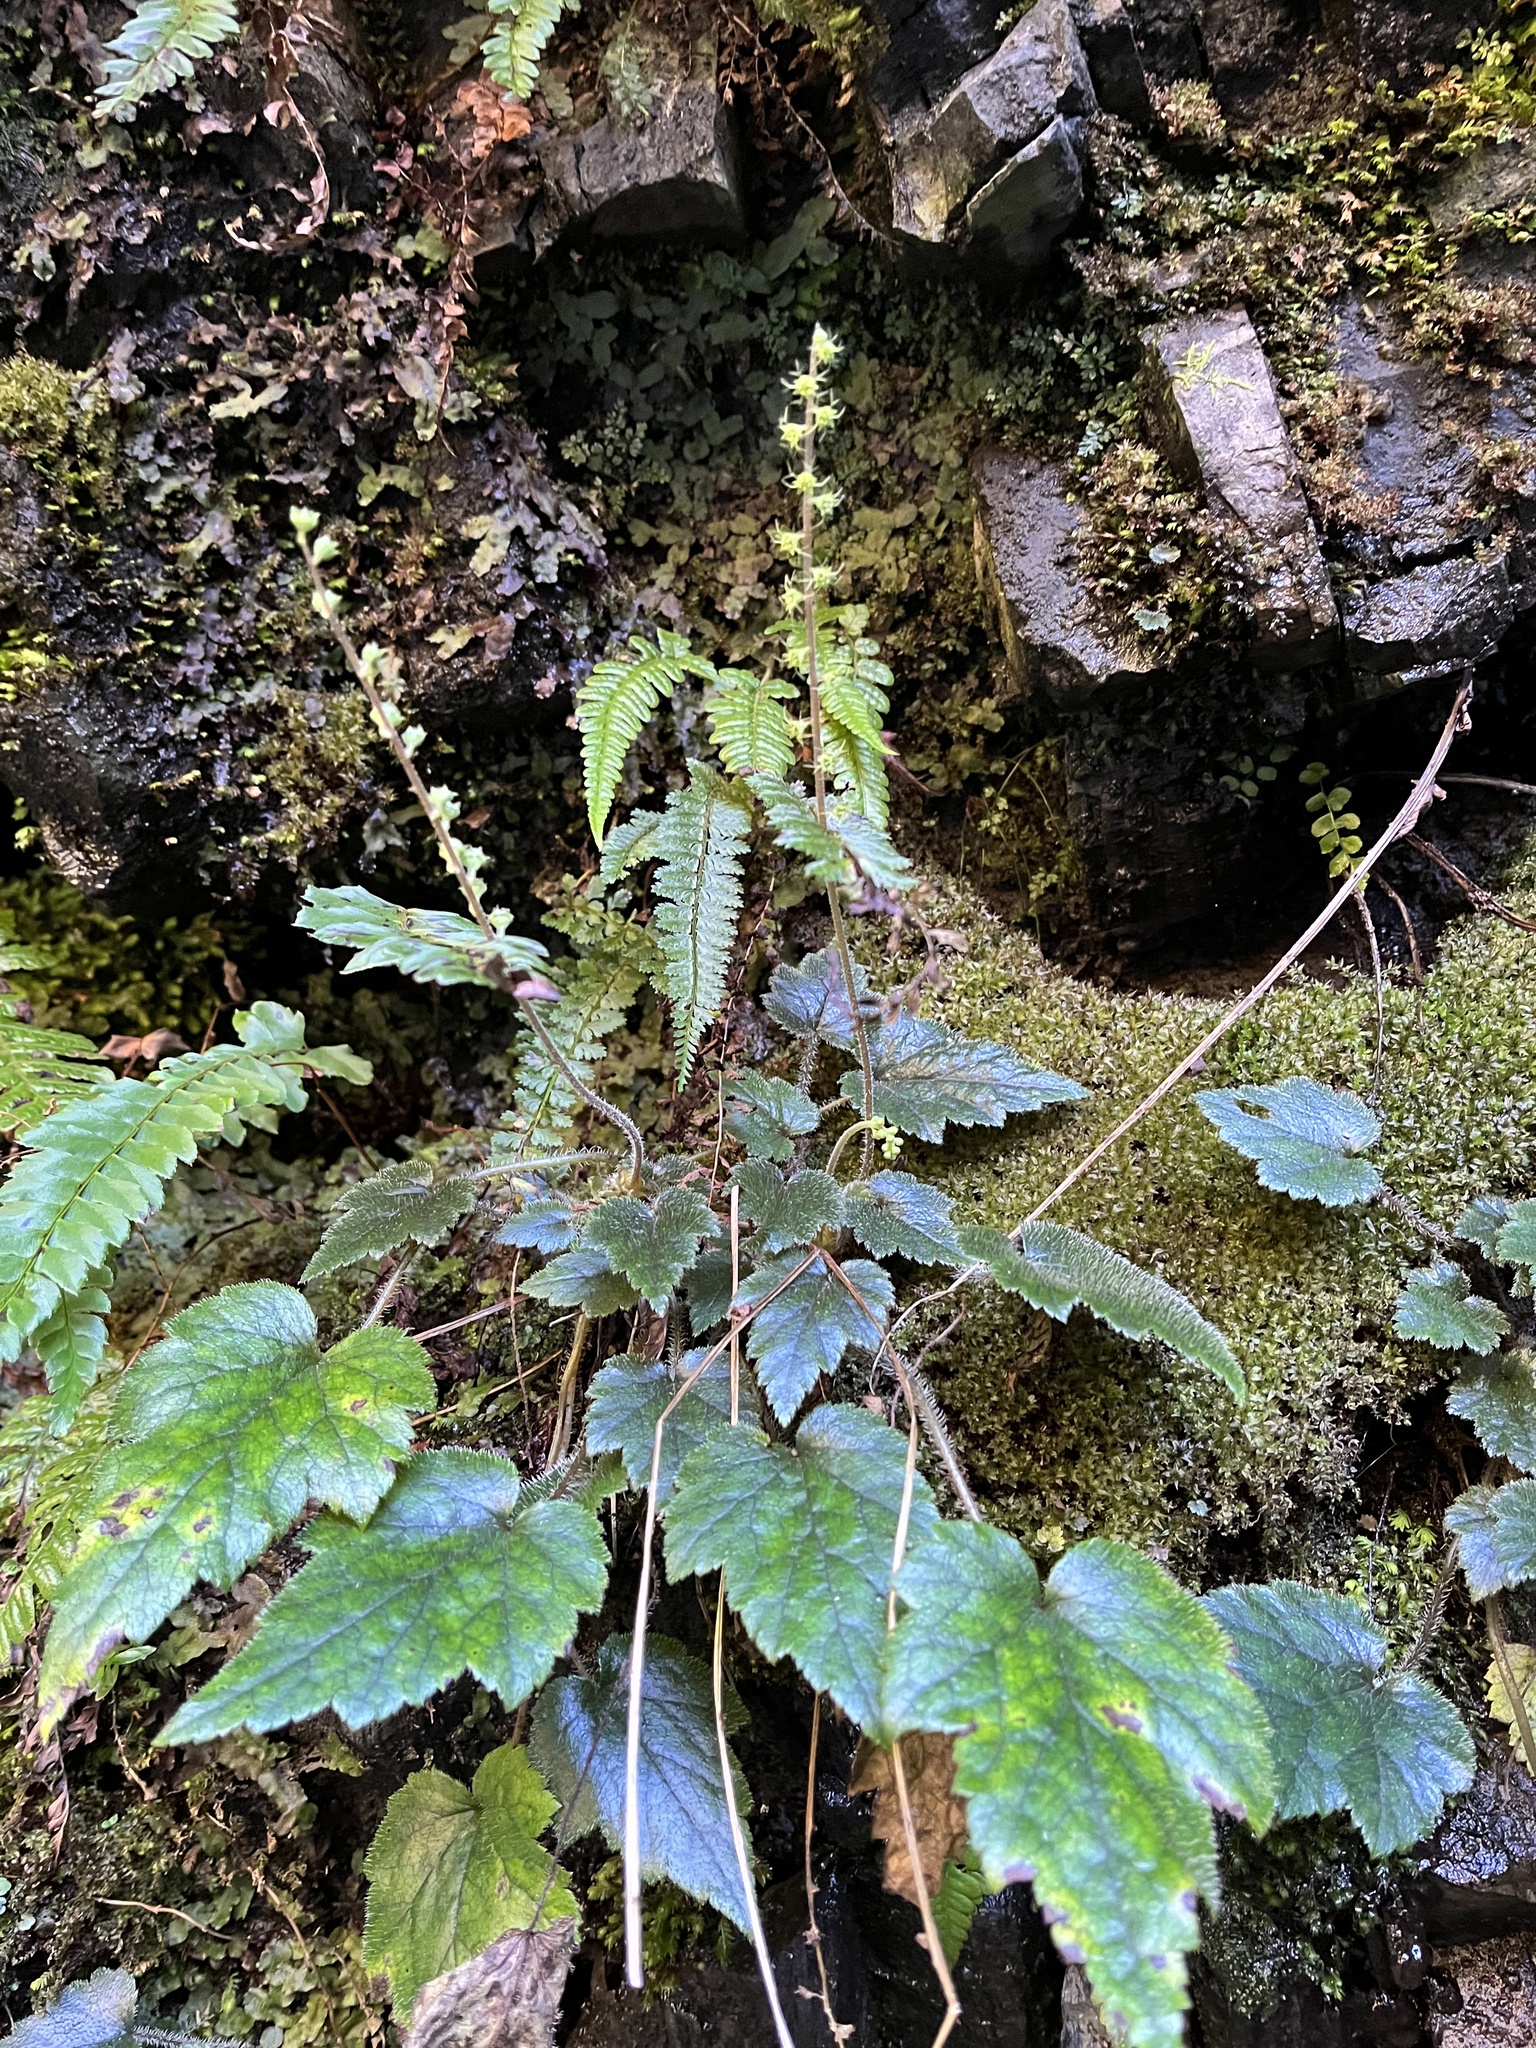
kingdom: Plantae
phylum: Tracheophyta
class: Magnoliopsida
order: Saxifragales
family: Saxifragaceae
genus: Asimitellaria
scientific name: Asimitellaria formosana
